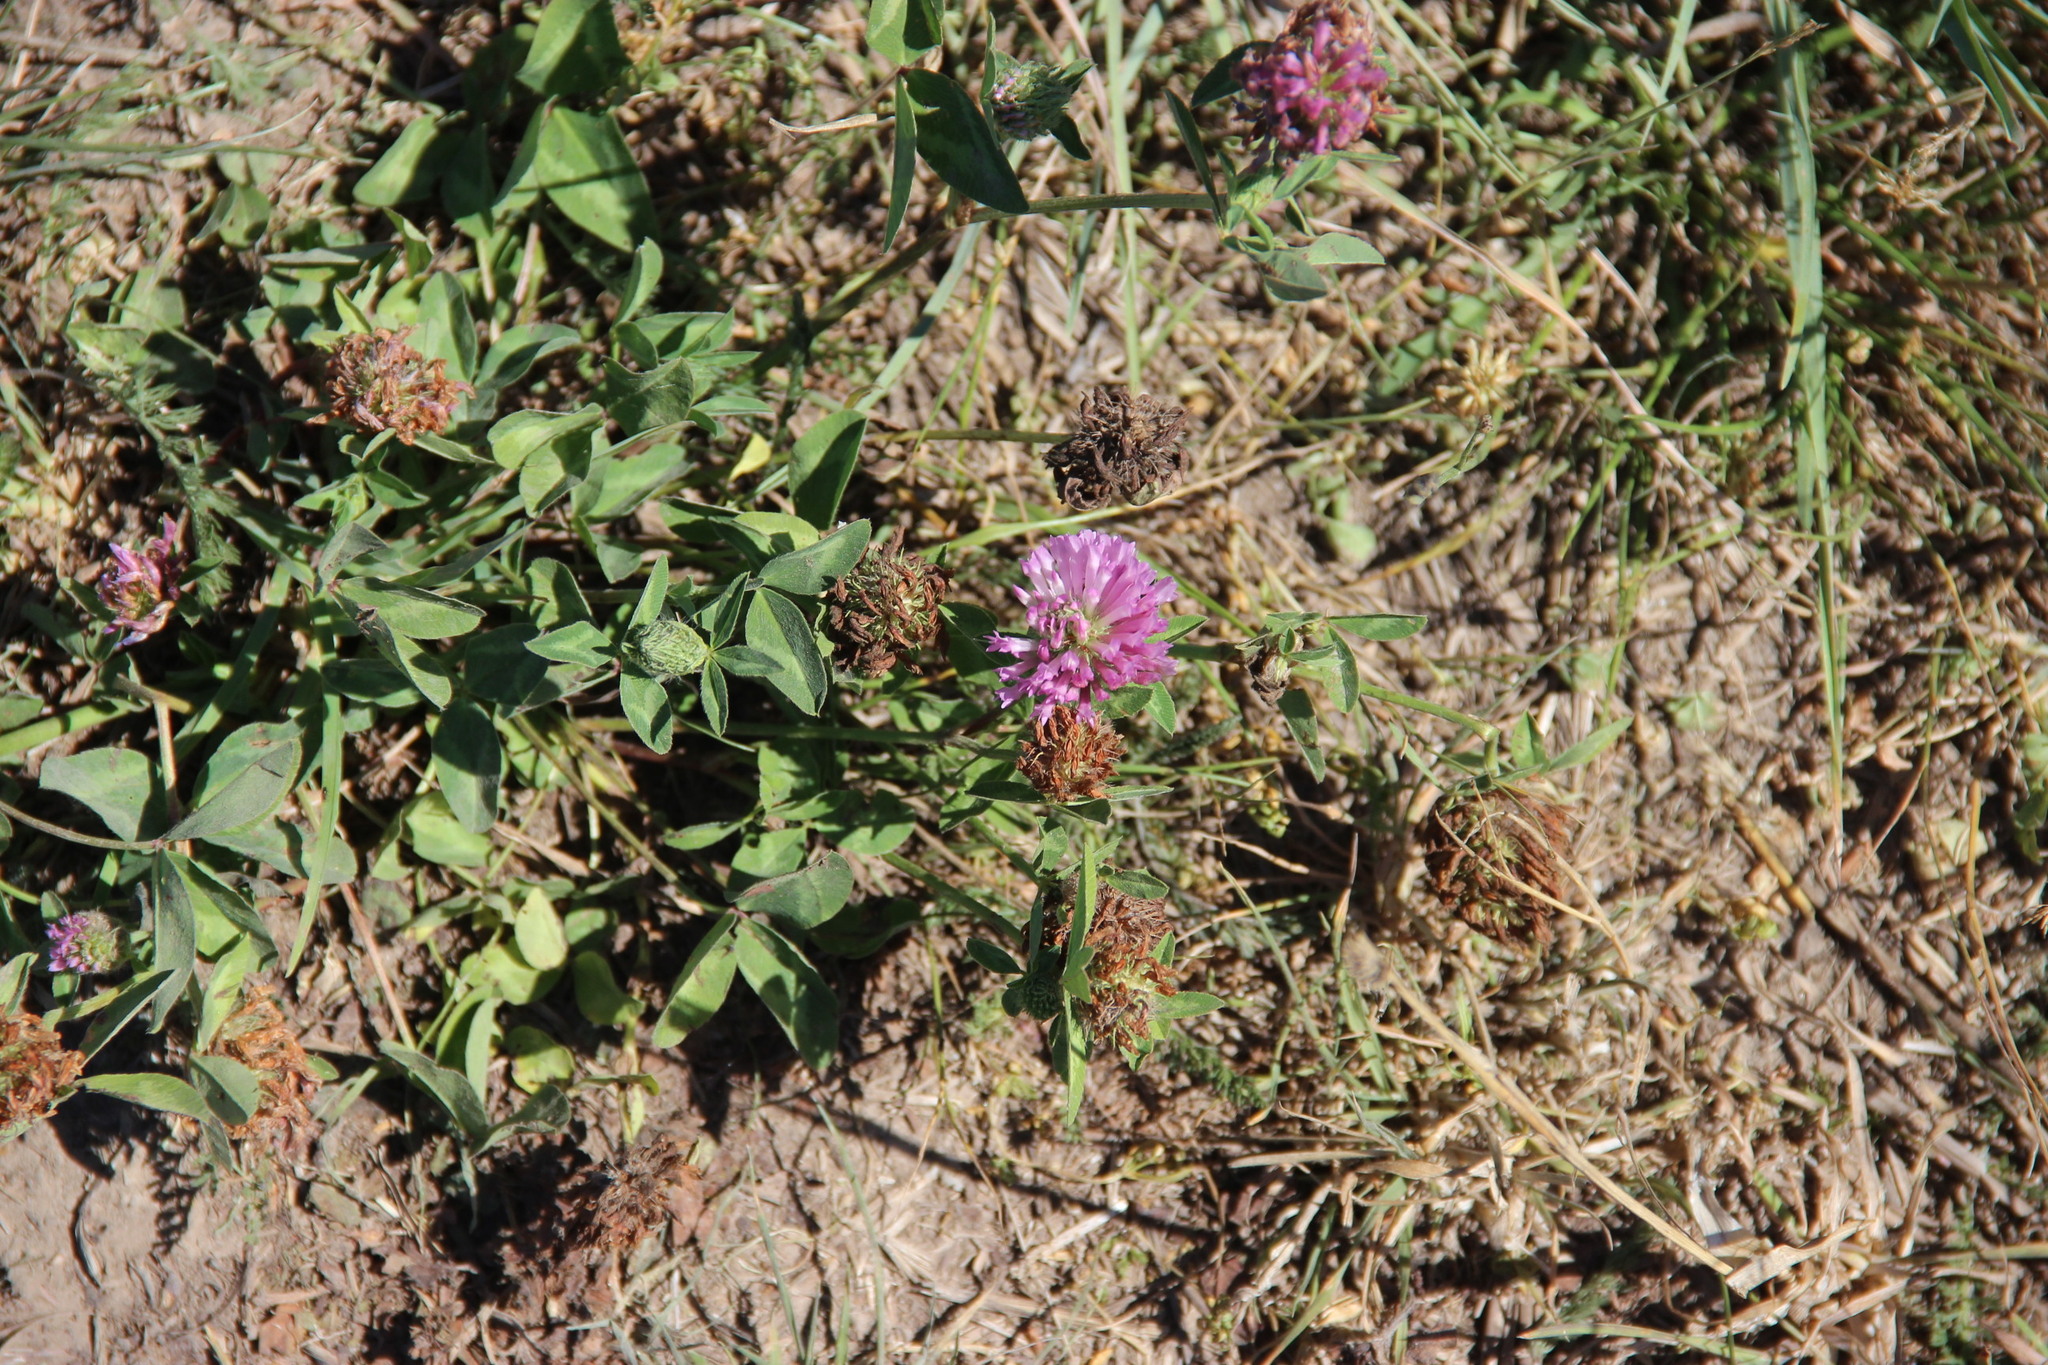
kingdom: Plantae
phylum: Tracheophyta
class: Magnoliopsida
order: Fabales
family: Fabaceae
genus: Trifolium
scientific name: Trifolium pratense
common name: Red clover
